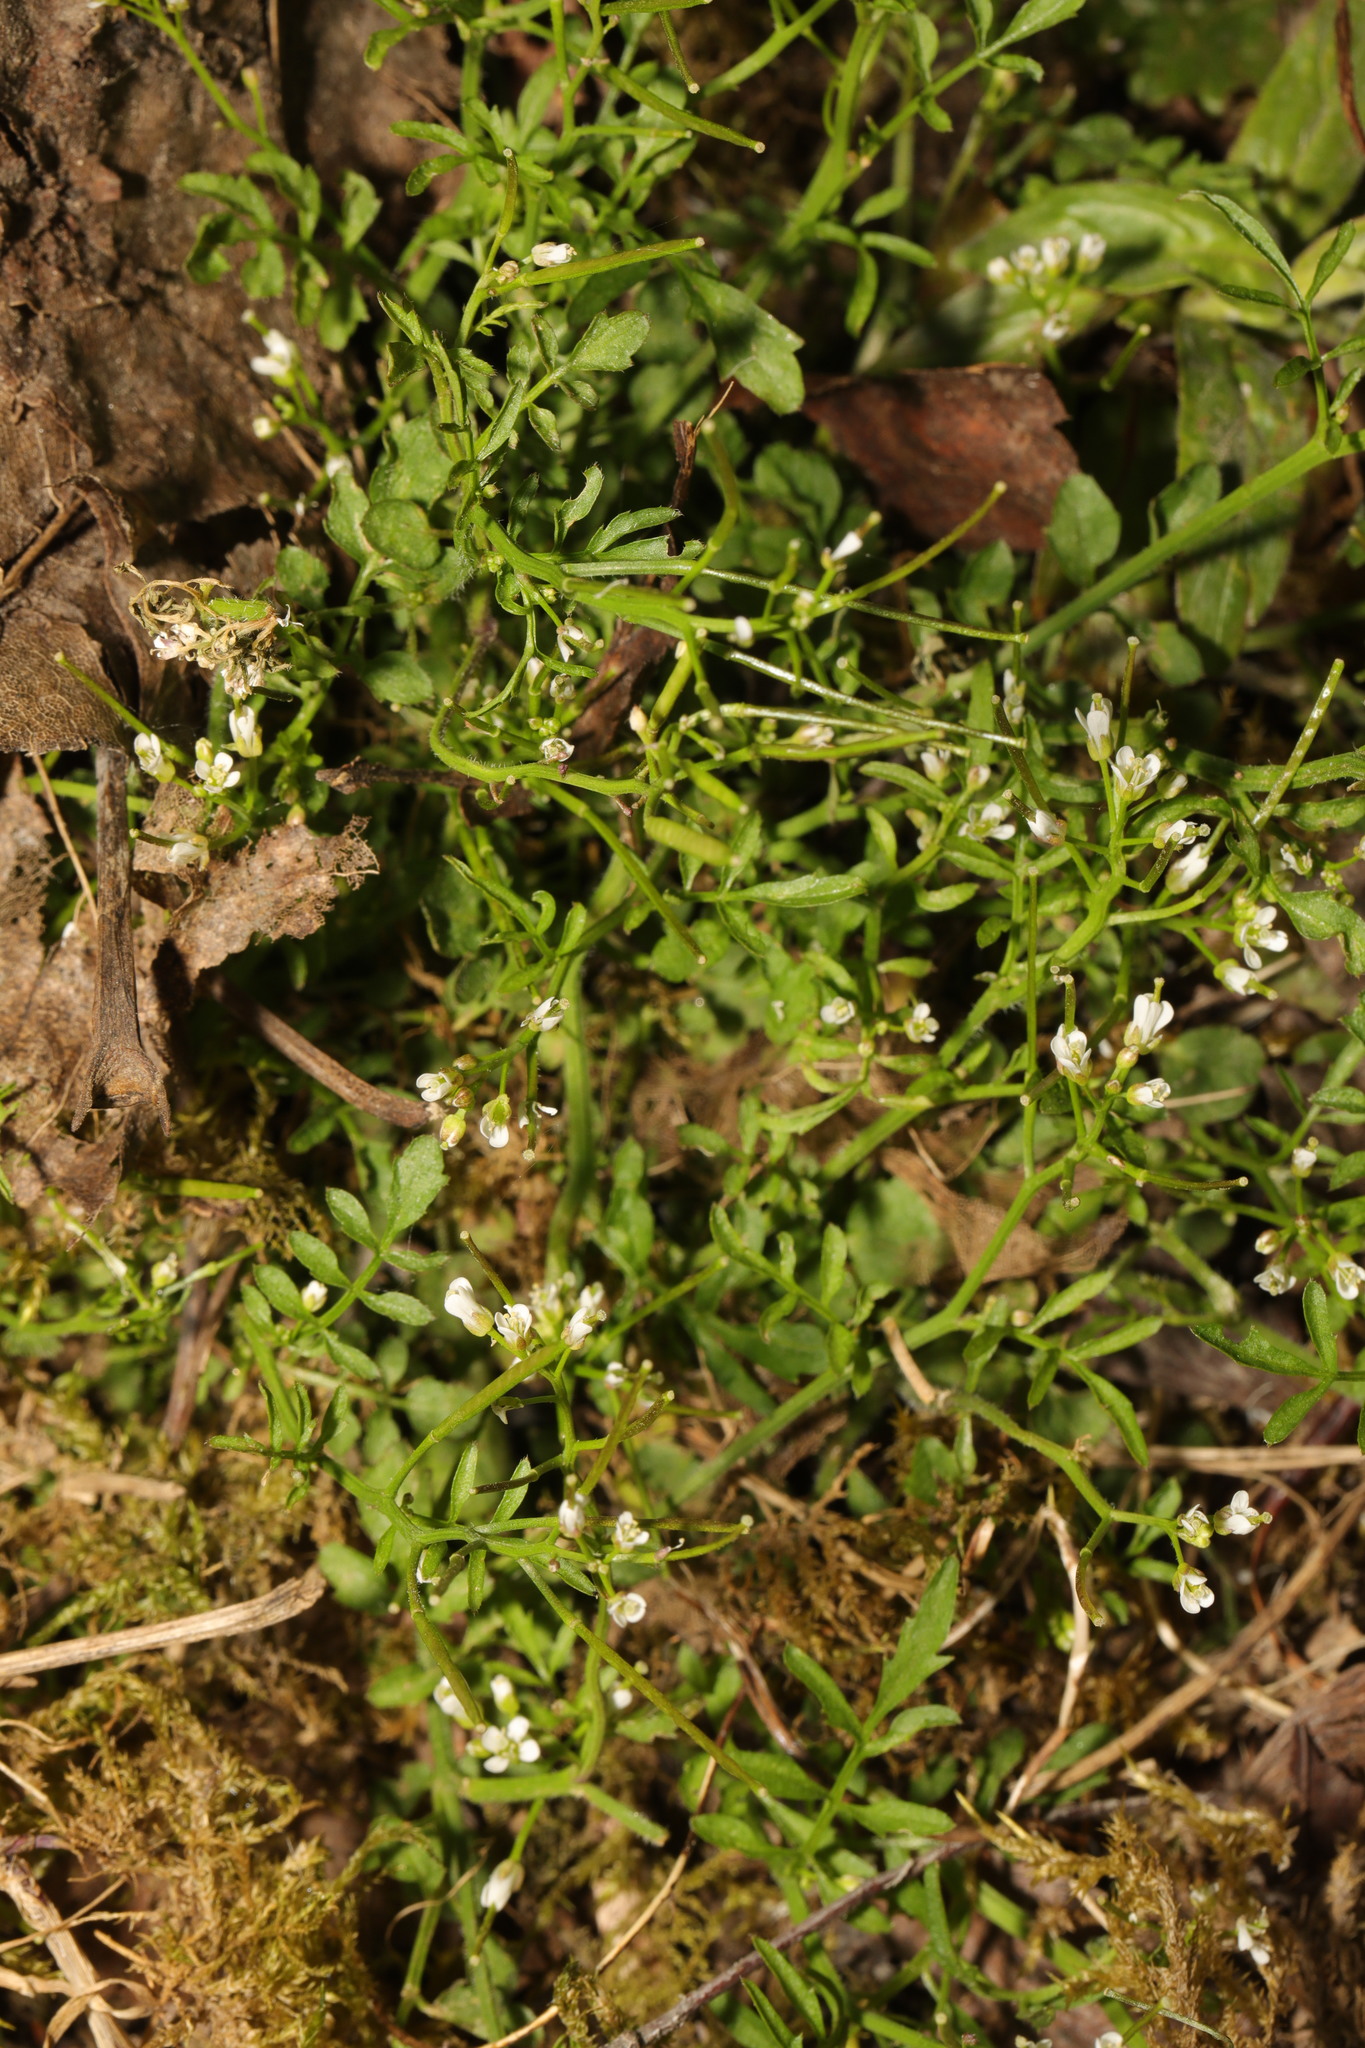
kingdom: Plantae
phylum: Tracheophyta
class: Magnoliopsida
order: Brassicales
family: Brassicaceae
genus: Cardamine
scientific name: Cardamine flexuosa
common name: Woodland bittercress
